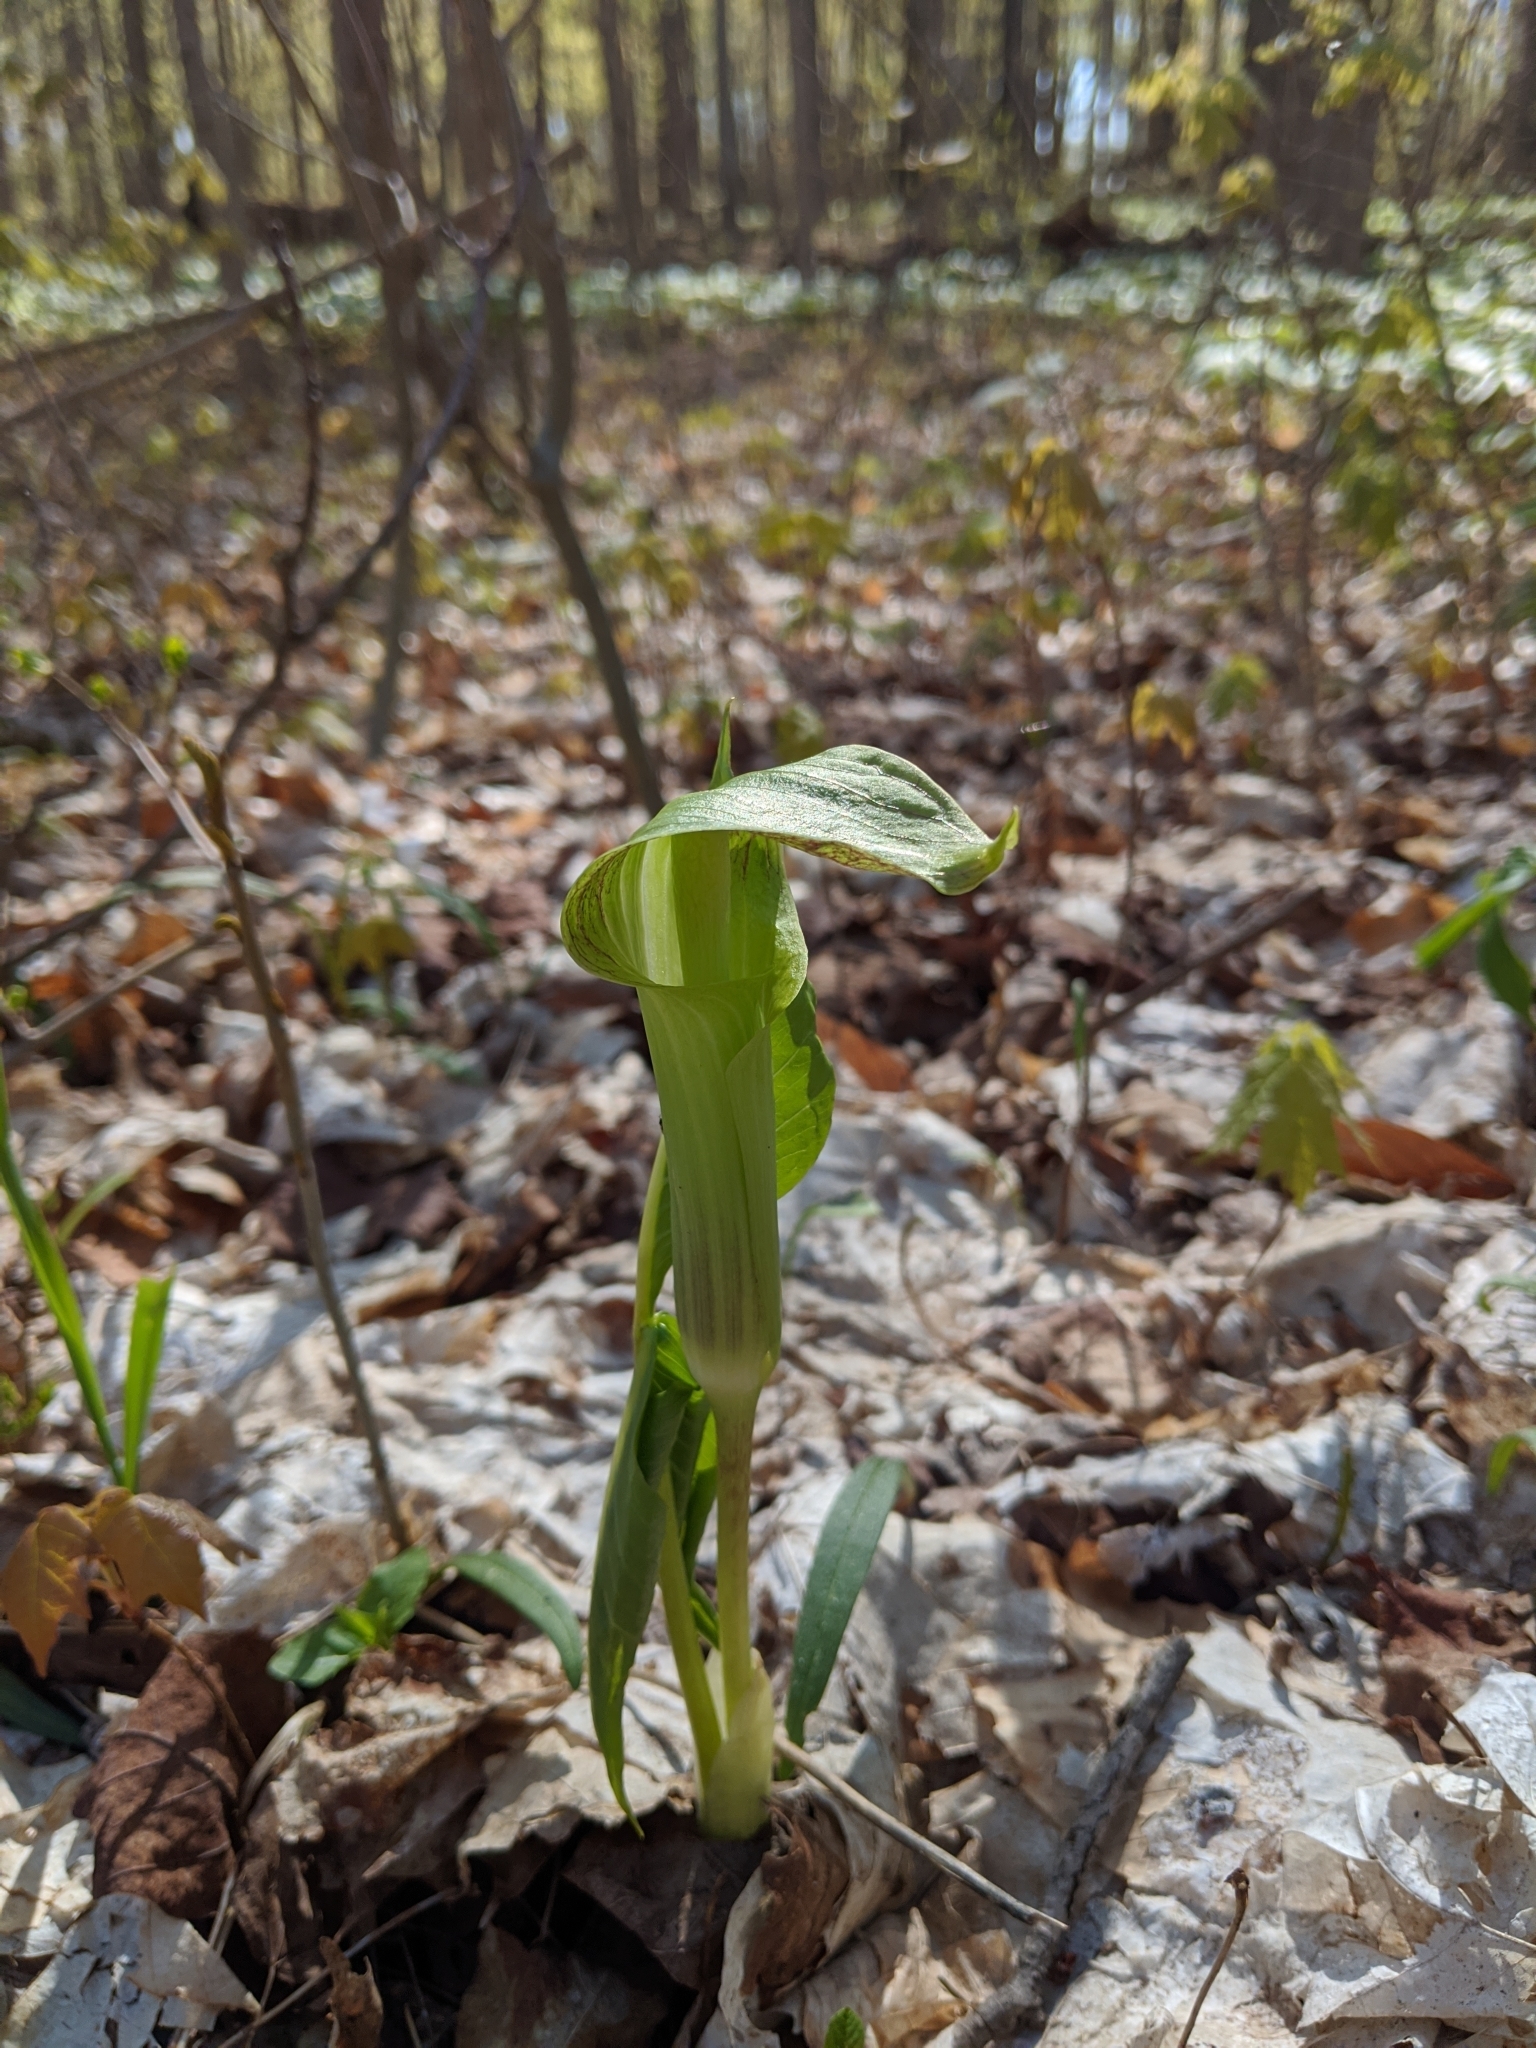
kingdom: Plantae
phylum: Tracheophyta
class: Liliopsida
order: Alismatales
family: Araceae
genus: Arisaema
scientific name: Arisaema triphyllum
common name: Jack-in-the-pulpit
